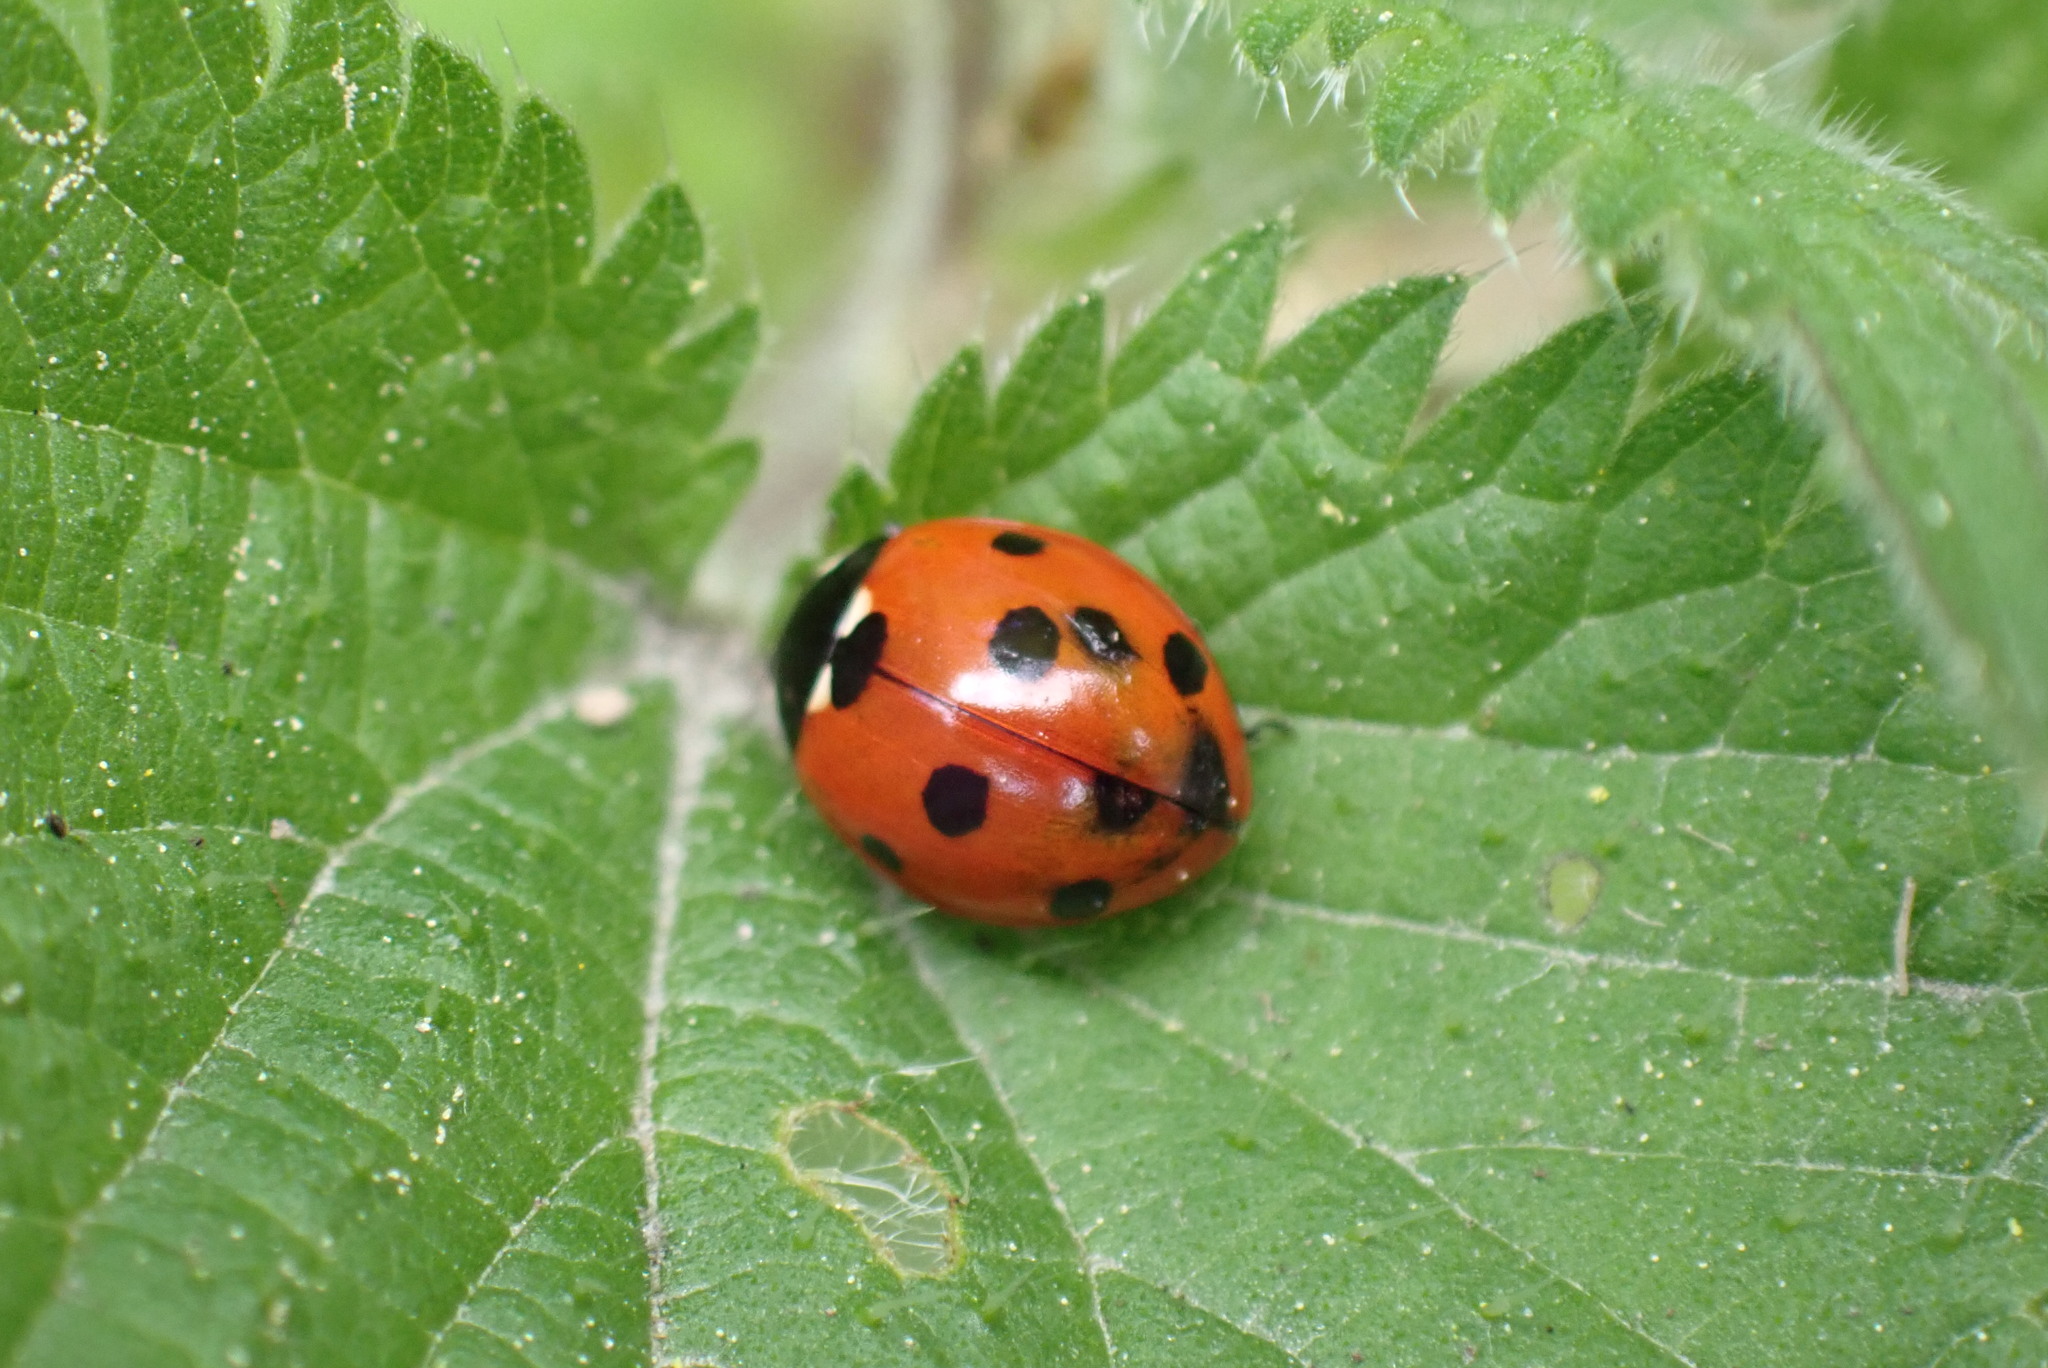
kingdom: Animalia
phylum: Arthropoda
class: Insecta
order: Coleoptera
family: Coccinellidae
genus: Coccinella
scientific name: Coccinella septempunctata
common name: Sevenspotted lady beetle
